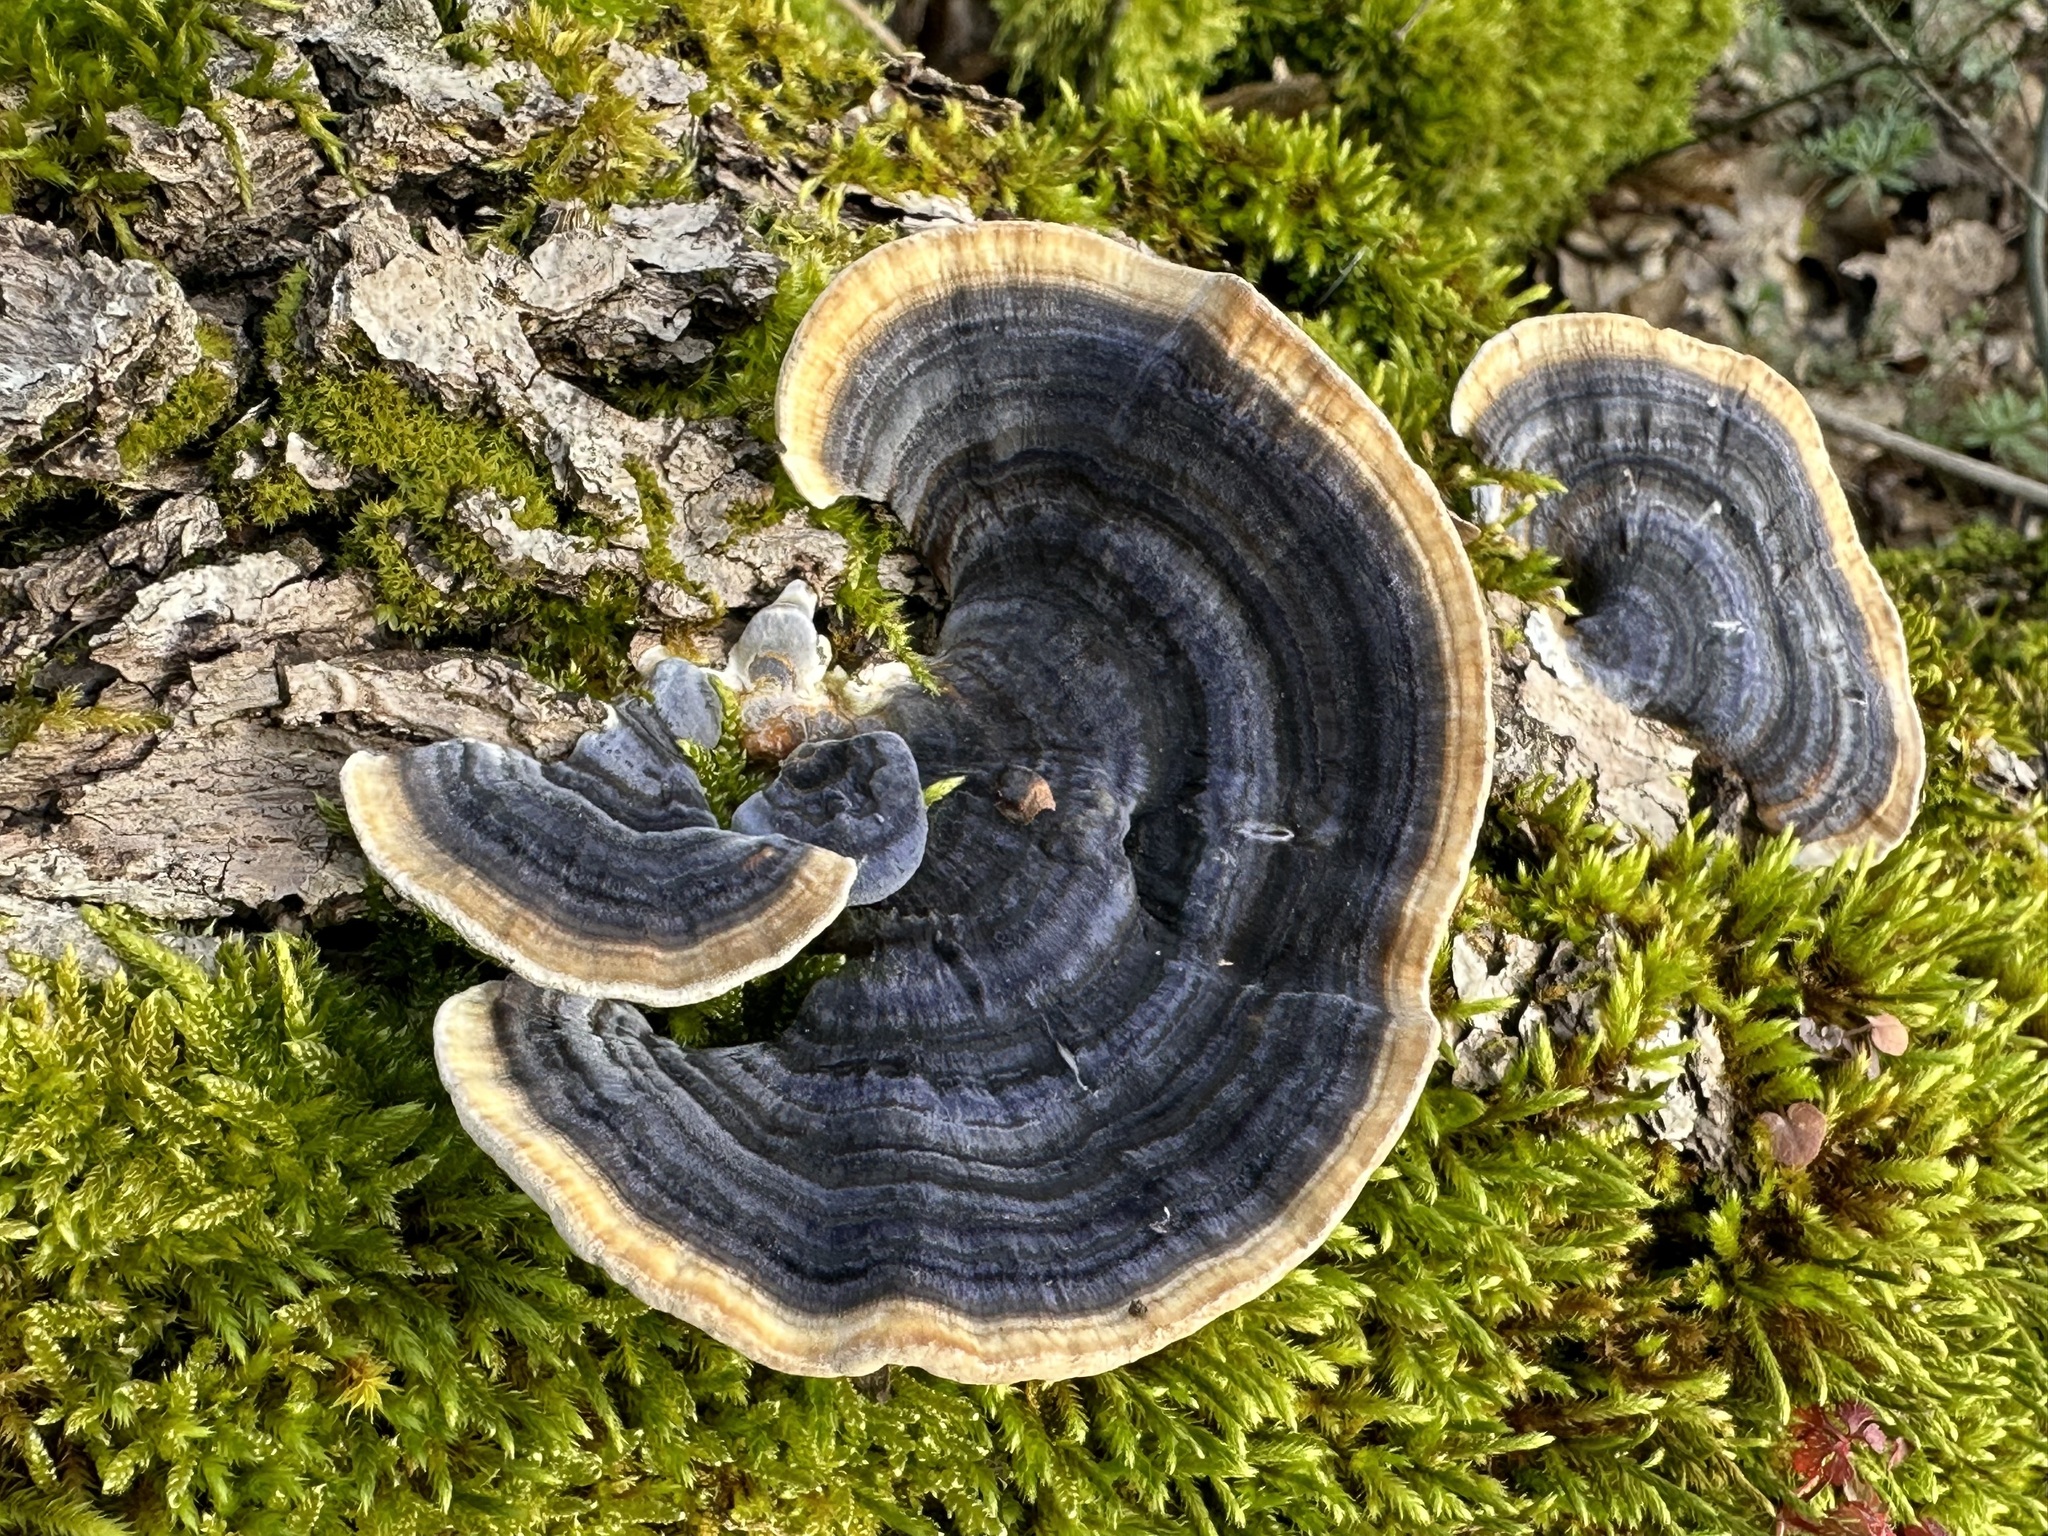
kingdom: Fungi
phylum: Basidiomycota
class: Agaricomycetes
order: Polyporales
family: Polyporaceae
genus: Trametes
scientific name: Trametes versicolor
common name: Turkeytail
